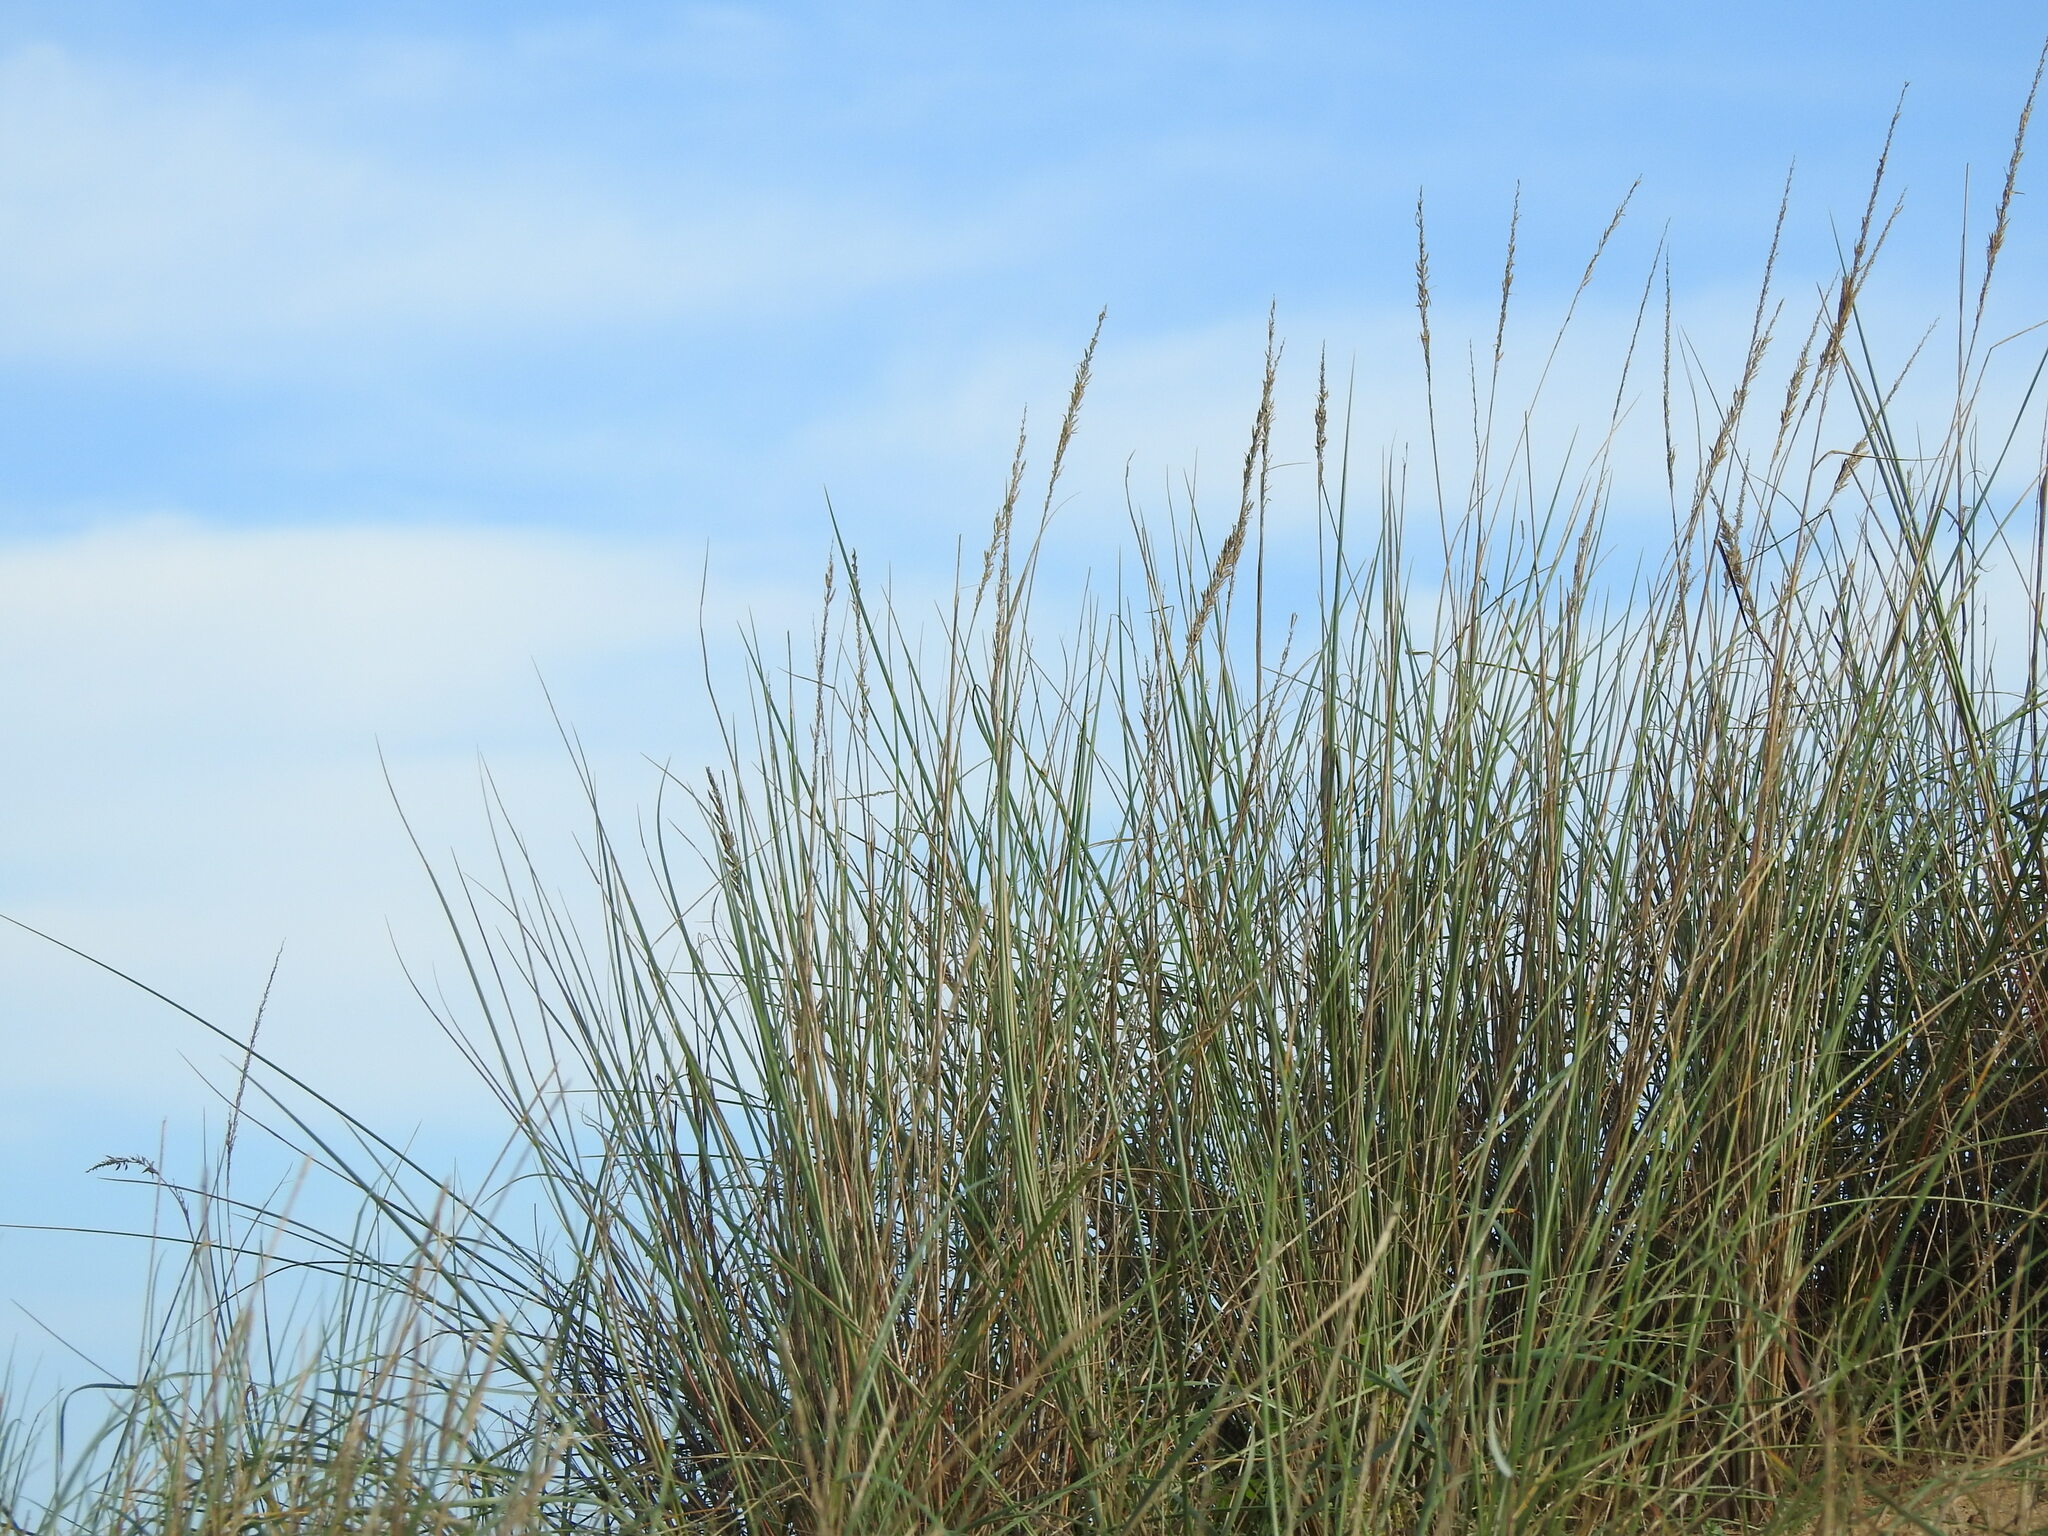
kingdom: Plantae
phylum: Tracheophyta
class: Liliopsida
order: Poales
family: Poaceae
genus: Calamagrostis
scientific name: Calamagrostis arenaria
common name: European beachgrass
